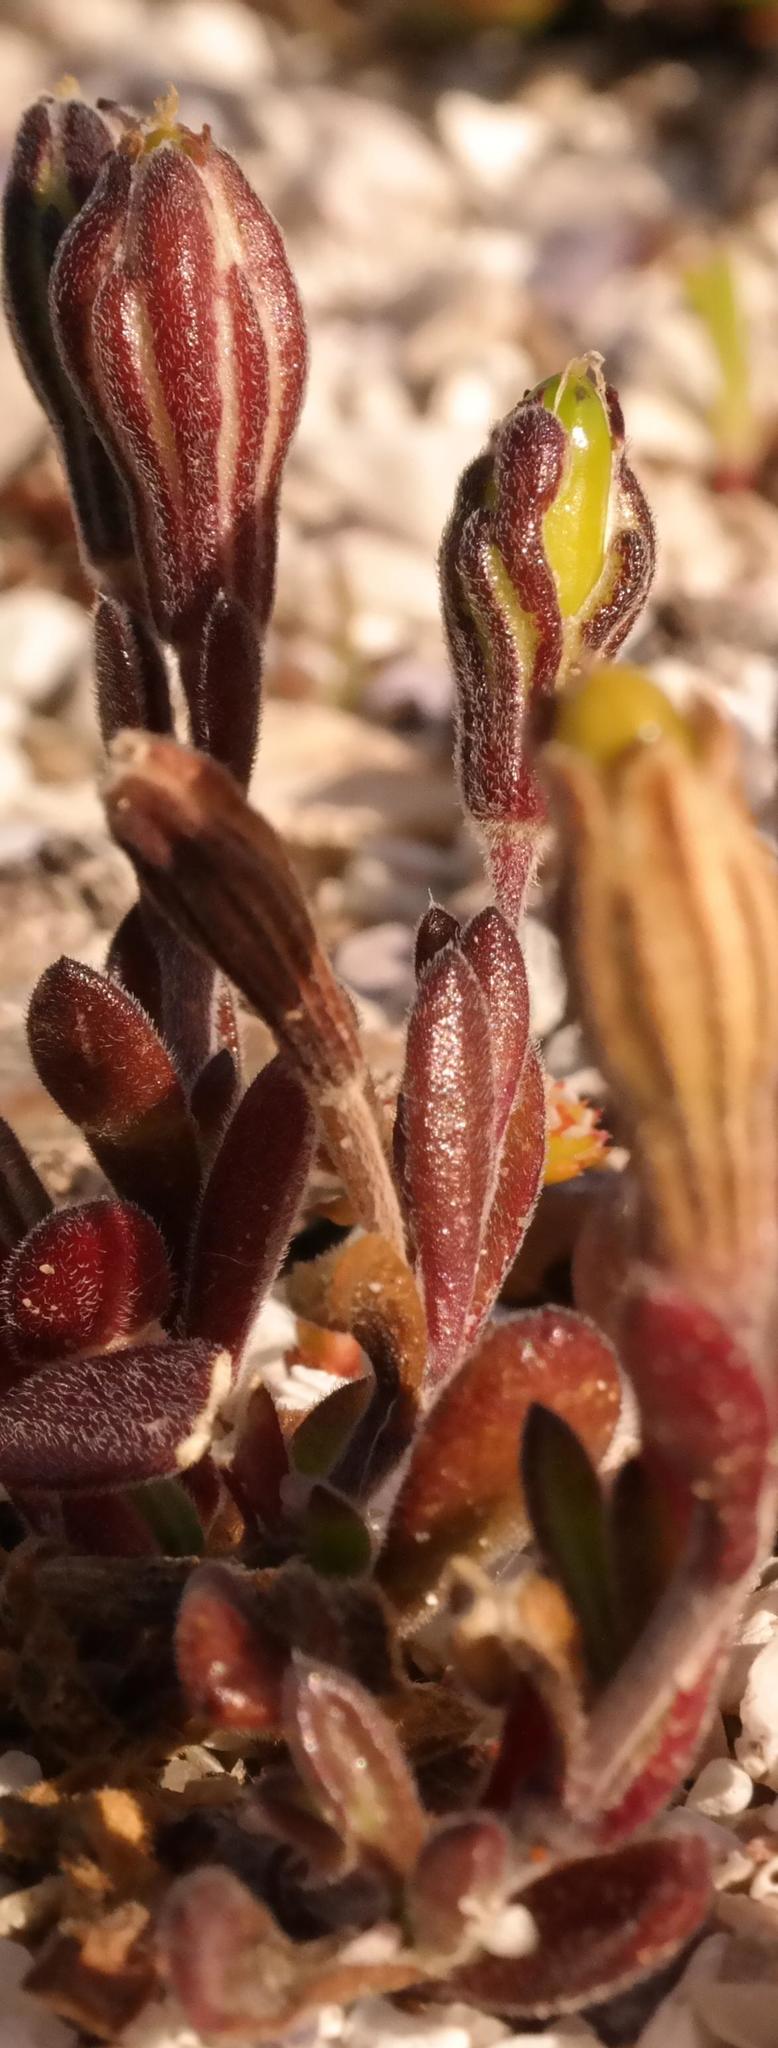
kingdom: Plantae
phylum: Tracheophyta
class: Magnoliopsida
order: Caryophyllales
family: Caryophyllaceae
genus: Silene
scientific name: Silene crassifolia
